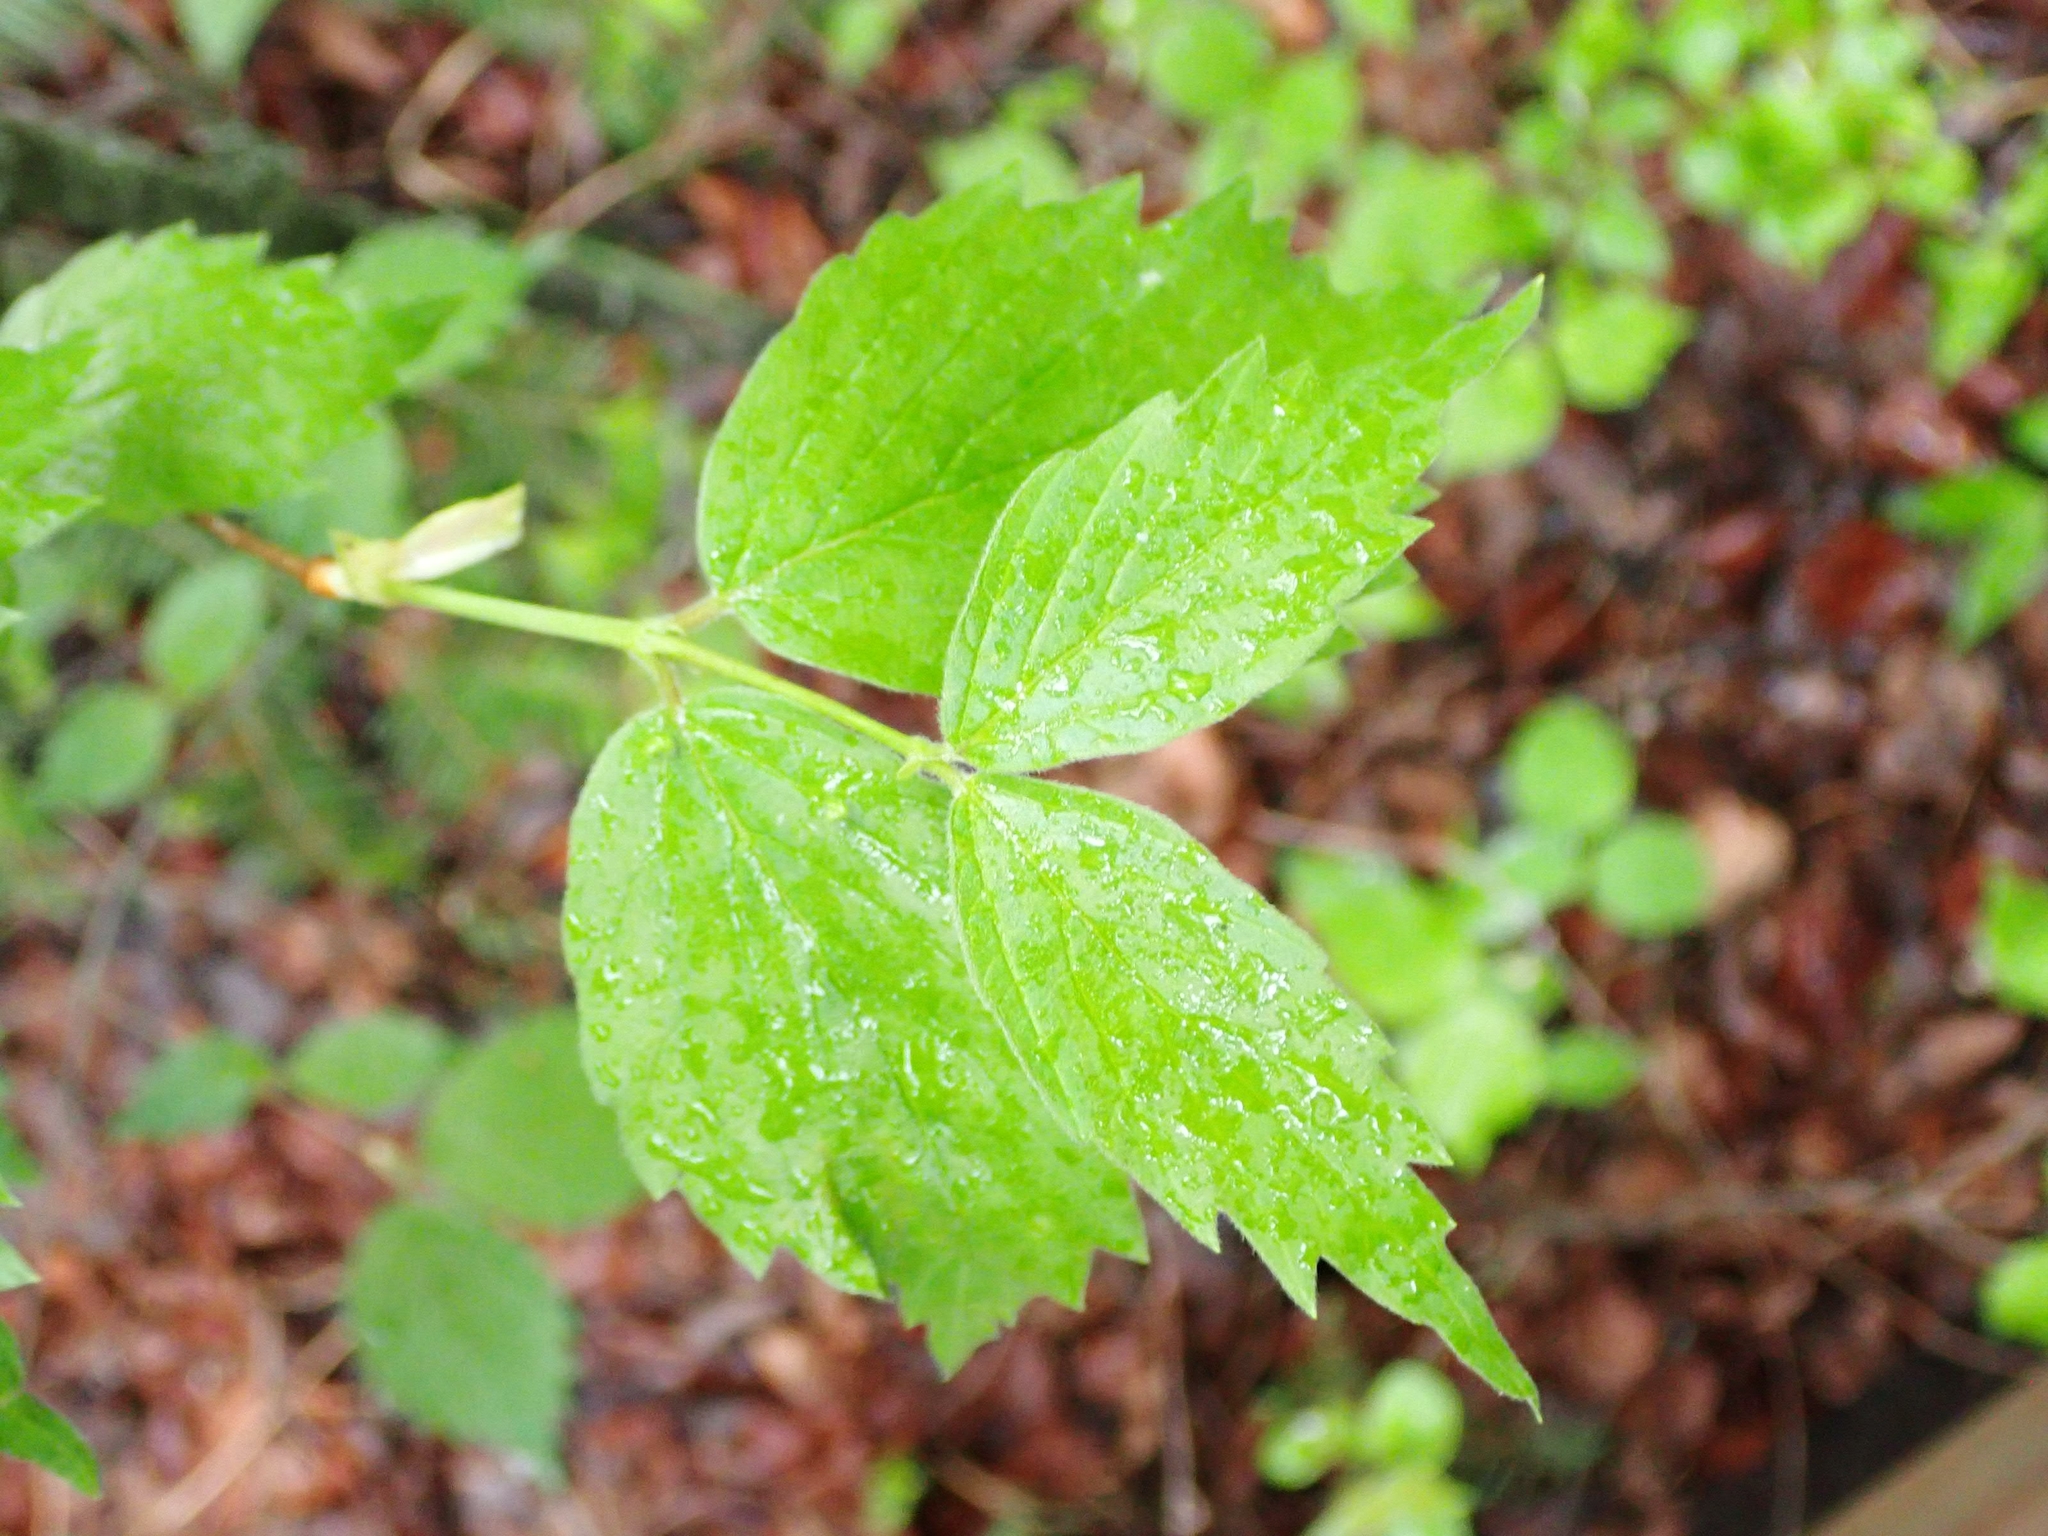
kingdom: Plantae
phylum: Tracheophyta
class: Magnoliopsida
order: Dipsacales
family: Viburnaceae
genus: Viburnum
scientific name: Viburnum rafinesqueanum
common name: Downy arrow-wood
